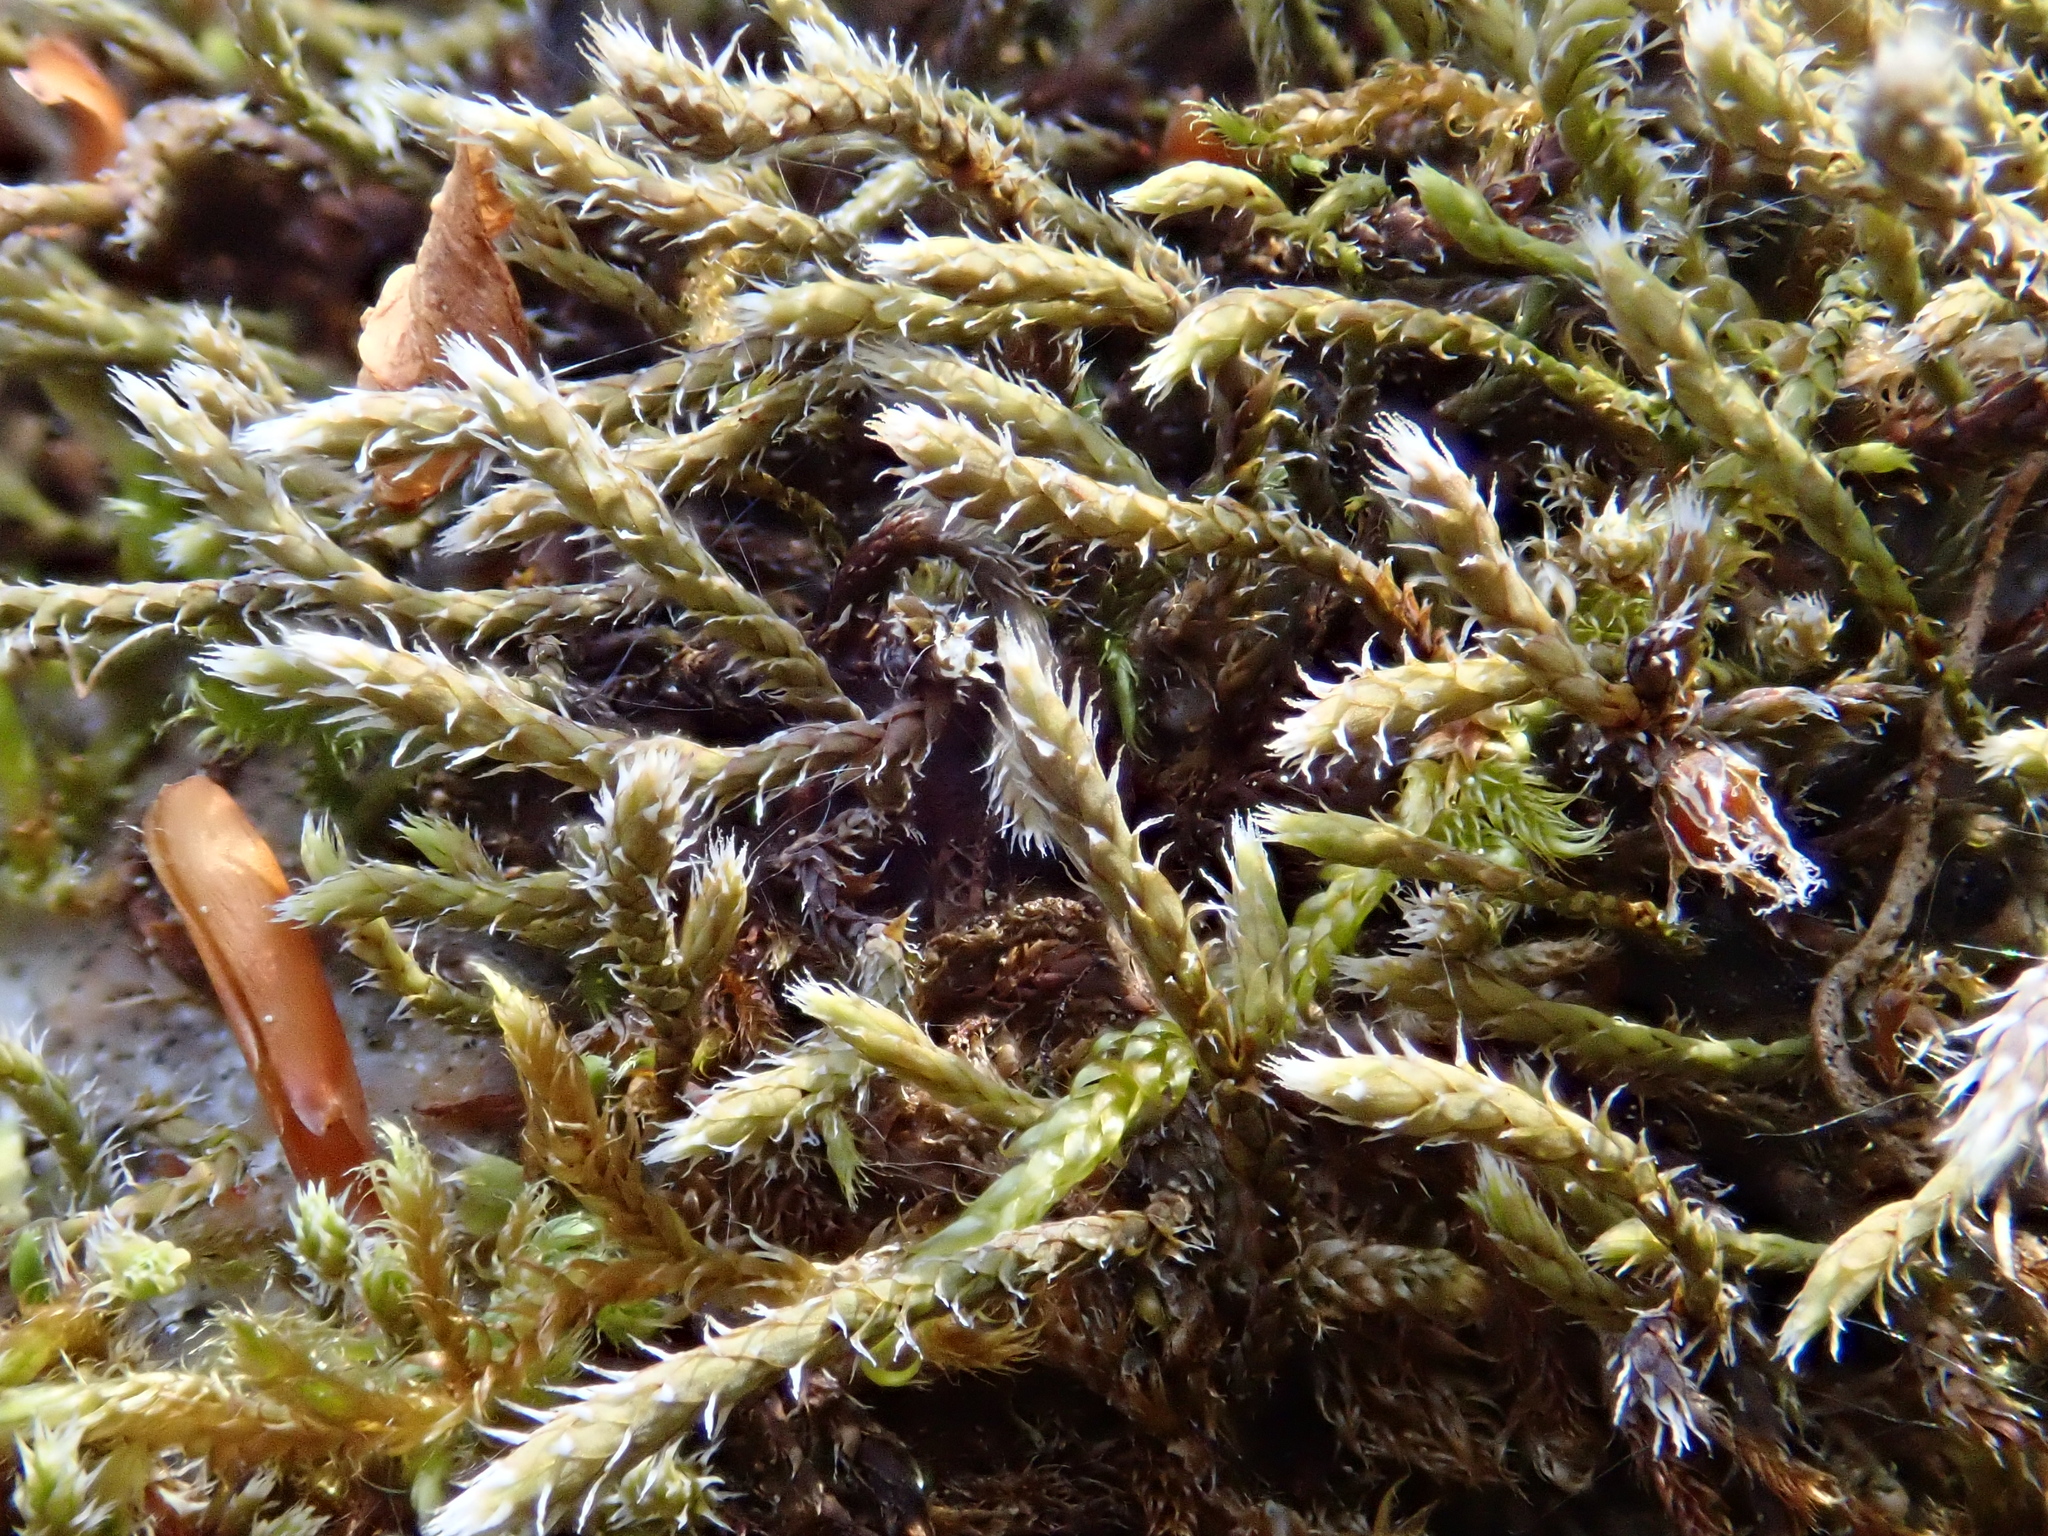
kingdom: Plantae
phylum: Bryophyta
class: Bryopsida
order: Hedwigiales
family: Hedwigiaceae
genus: Hedwigia
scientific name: Hedwigia ciliata
